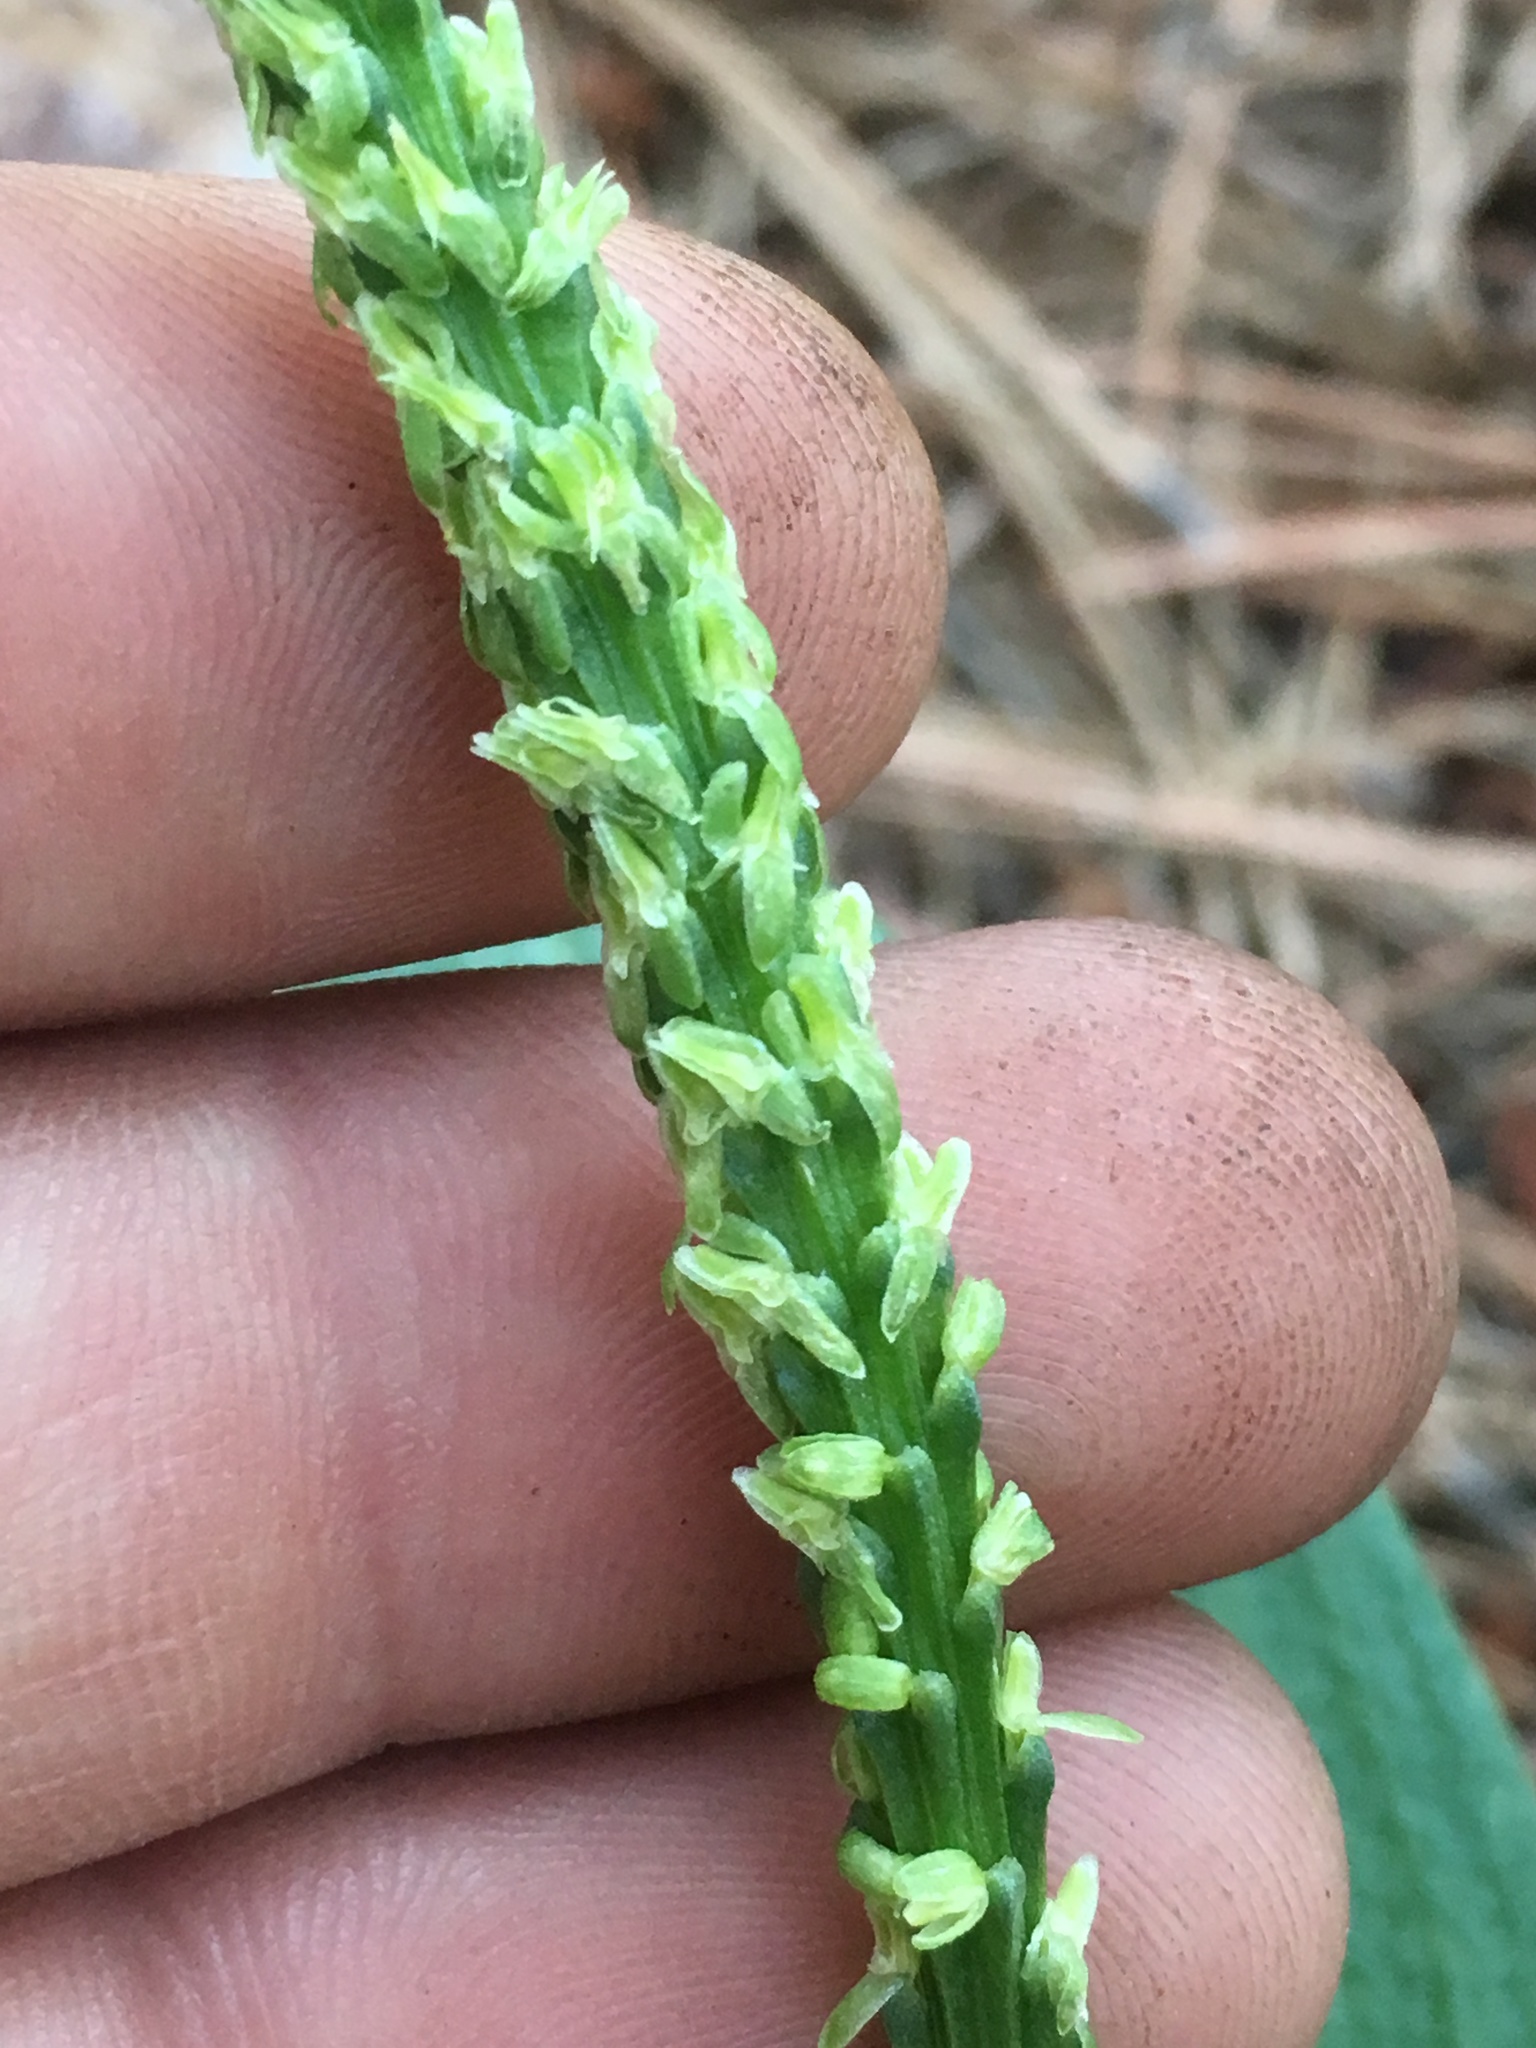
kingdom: Plantae
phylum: Tracheophyta
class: Liliopsida
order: Asparagales
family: Orchidaceae
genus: Malaxis
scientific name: Malaxis macrostachya
